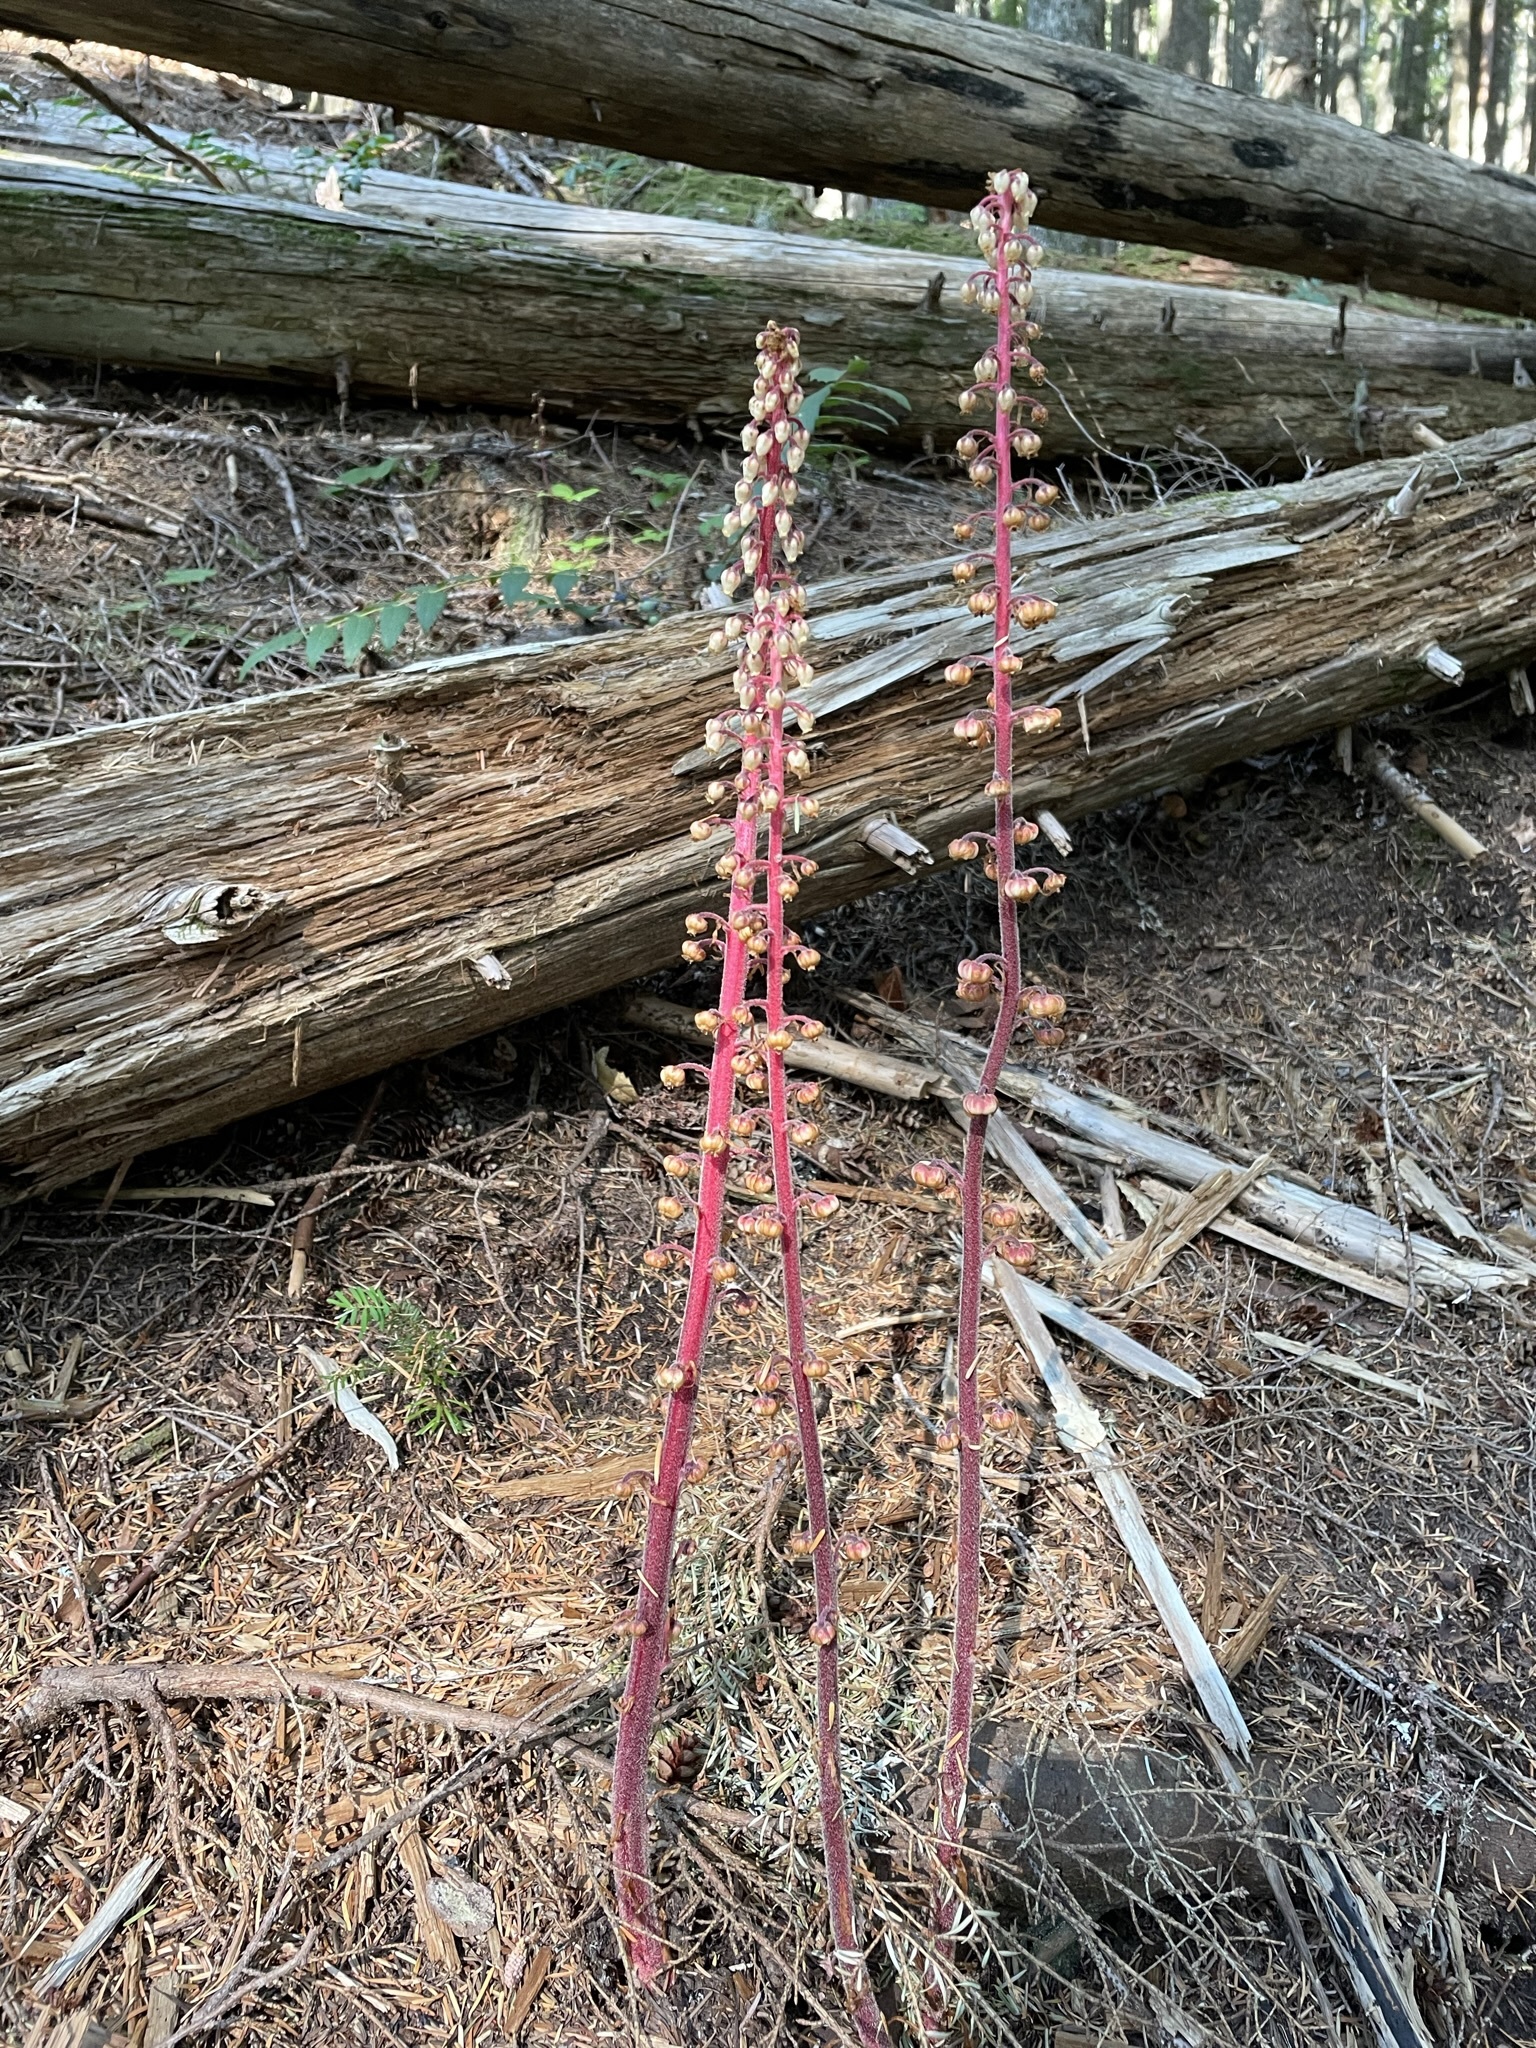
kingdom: Plantae
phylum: Tracheophyta
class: Magnoliopsida
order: Ericales
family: Ericaceae
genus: Pterospora
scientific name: Pterospora andromedea
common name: Giant bird's-nest
